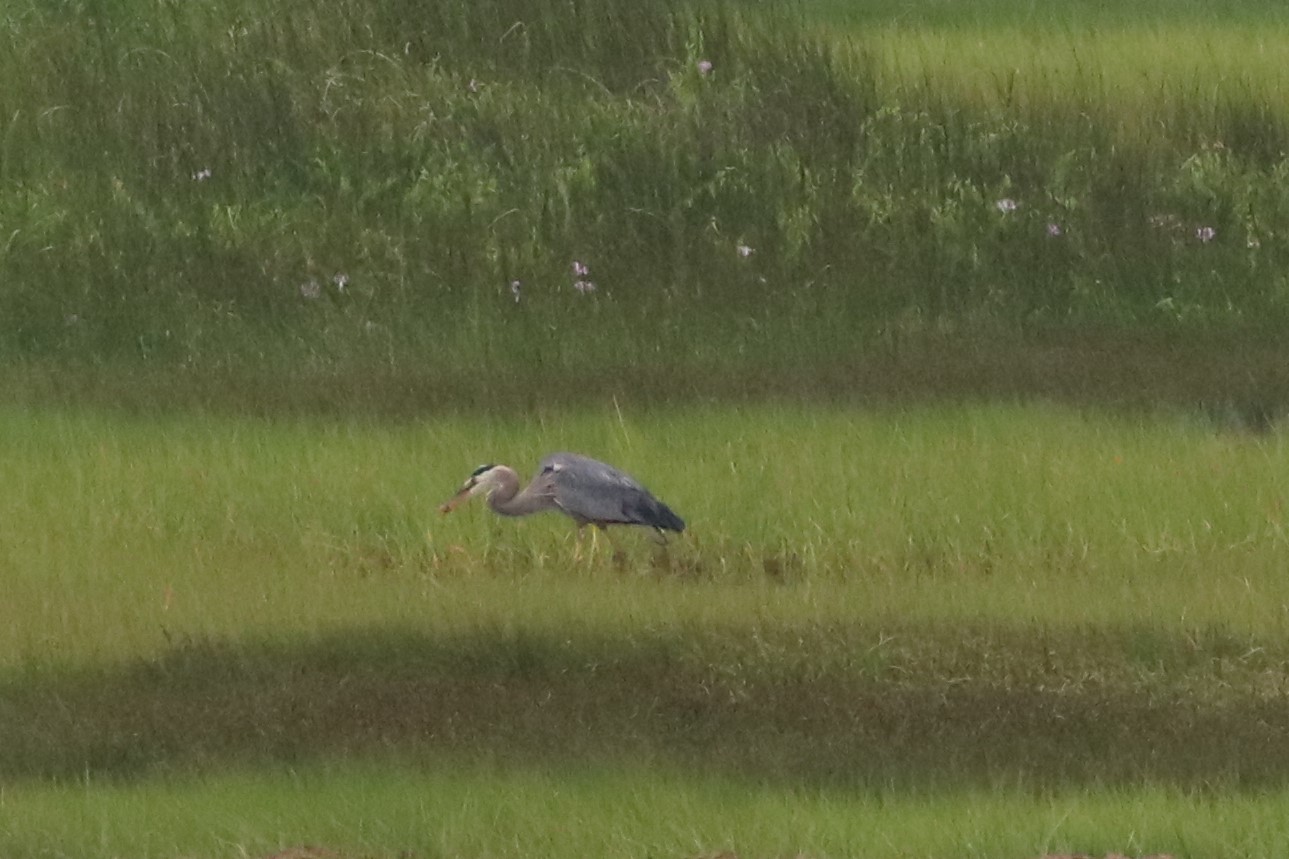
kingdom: Animalia
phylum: Chordata
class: Aves
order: Pelecaniformes
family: Ardeidae
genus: Ardea
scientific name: Ardea herodias
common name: Great blue heron
